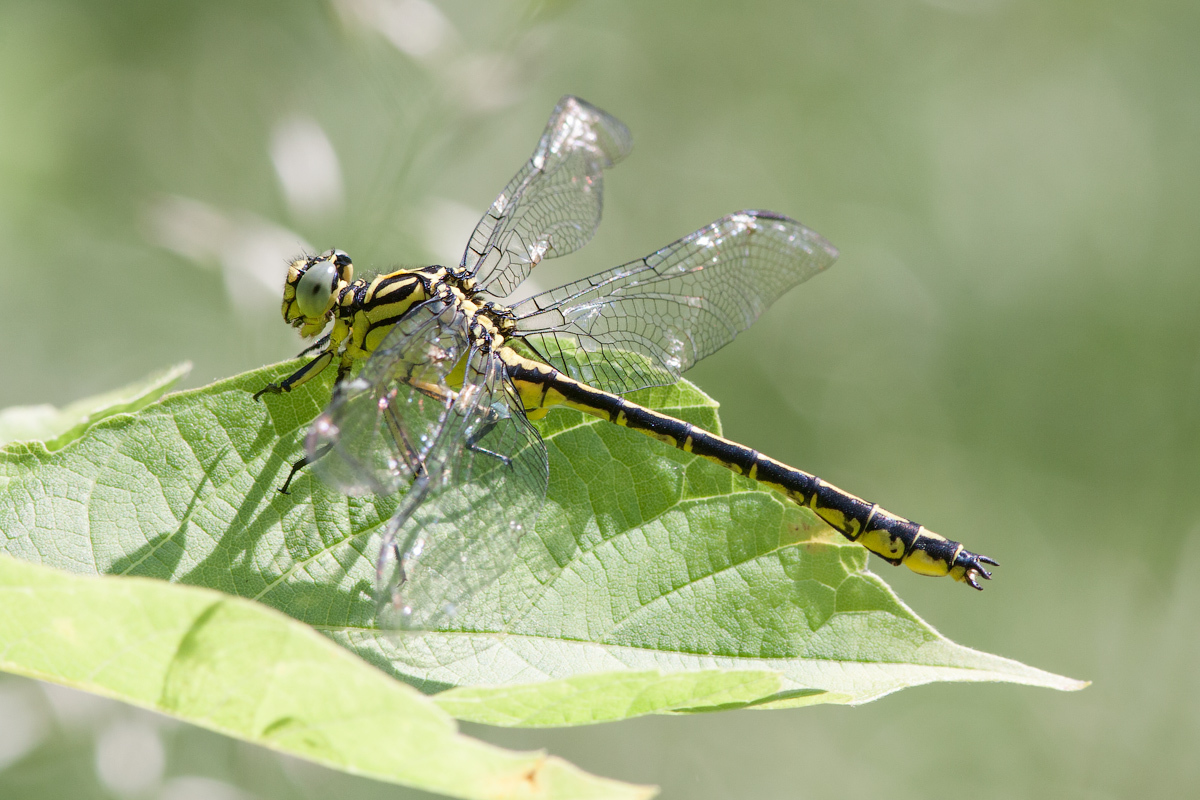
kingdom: Animalia
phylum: Arthropoda
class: Insecta
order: Odonata
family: Gomphidae
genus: Stylurus
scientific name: Stylurus flavipes
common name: River clubtail
